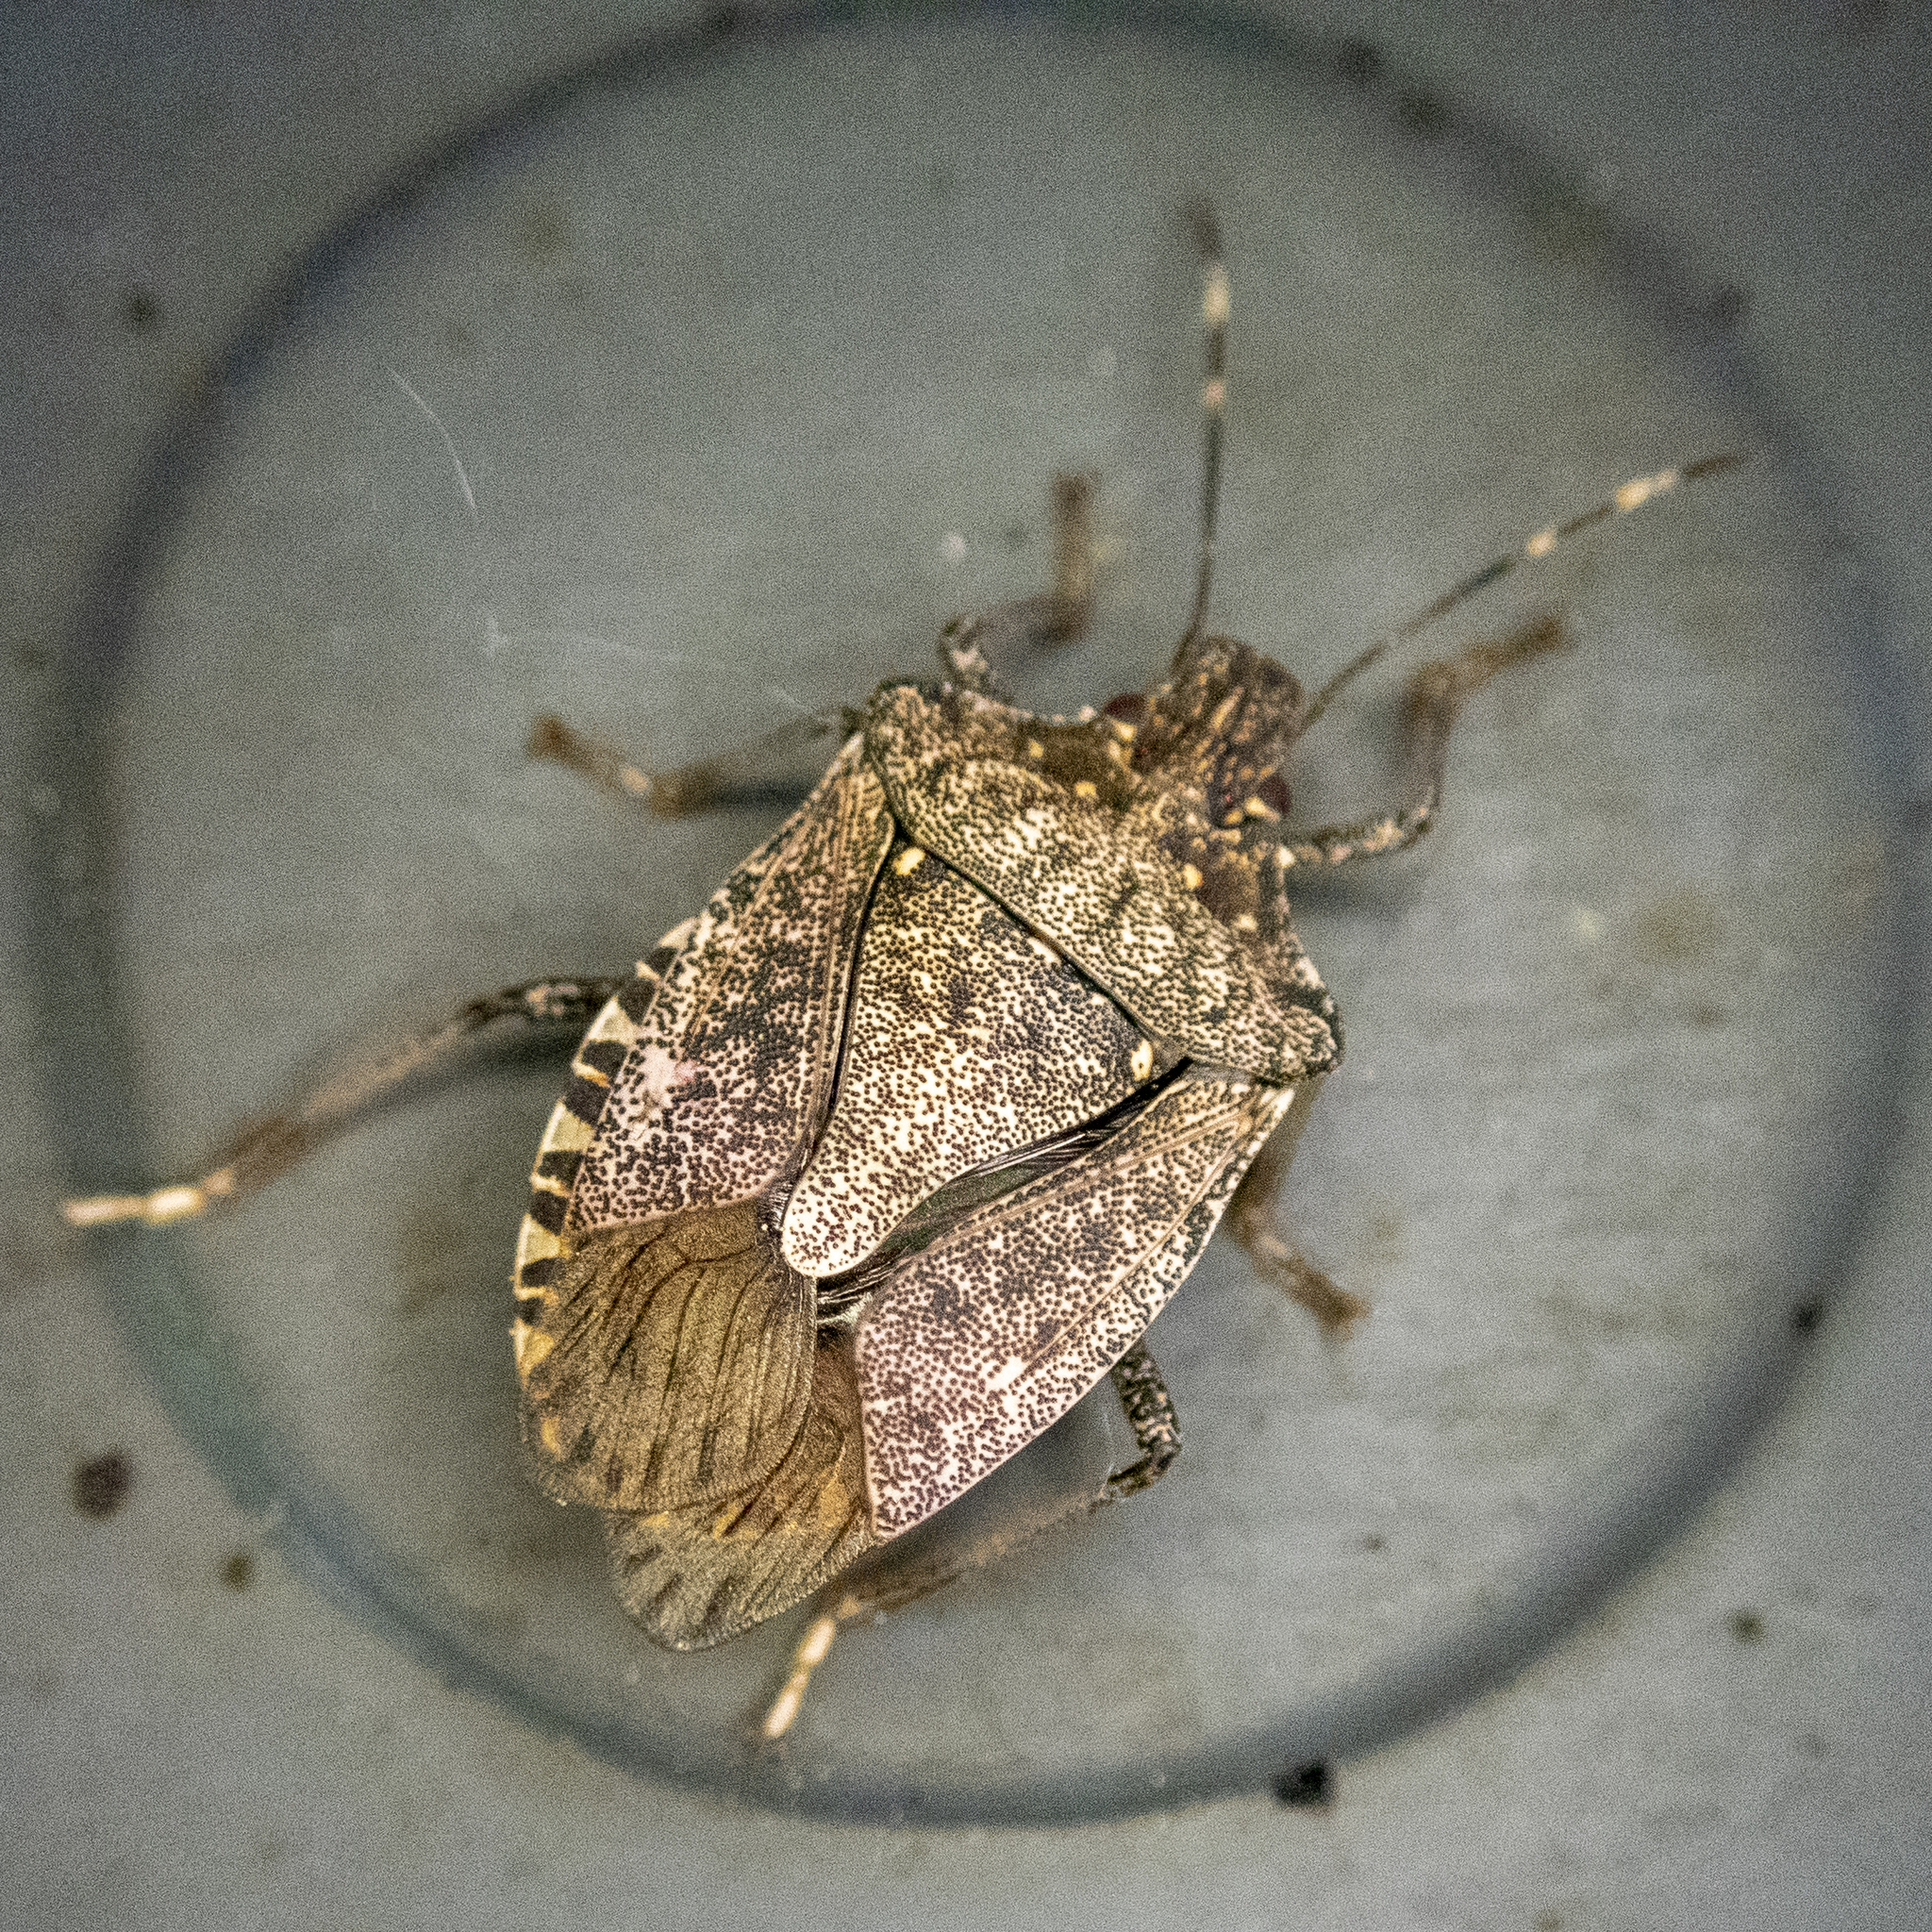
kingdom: Animalia
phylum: Arthropoda
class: Insecta
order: Hemiptera
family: Pentatomidae
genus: Halyomorpha
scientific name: Halyomorpha halys
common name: Brown marmorated stink bug
